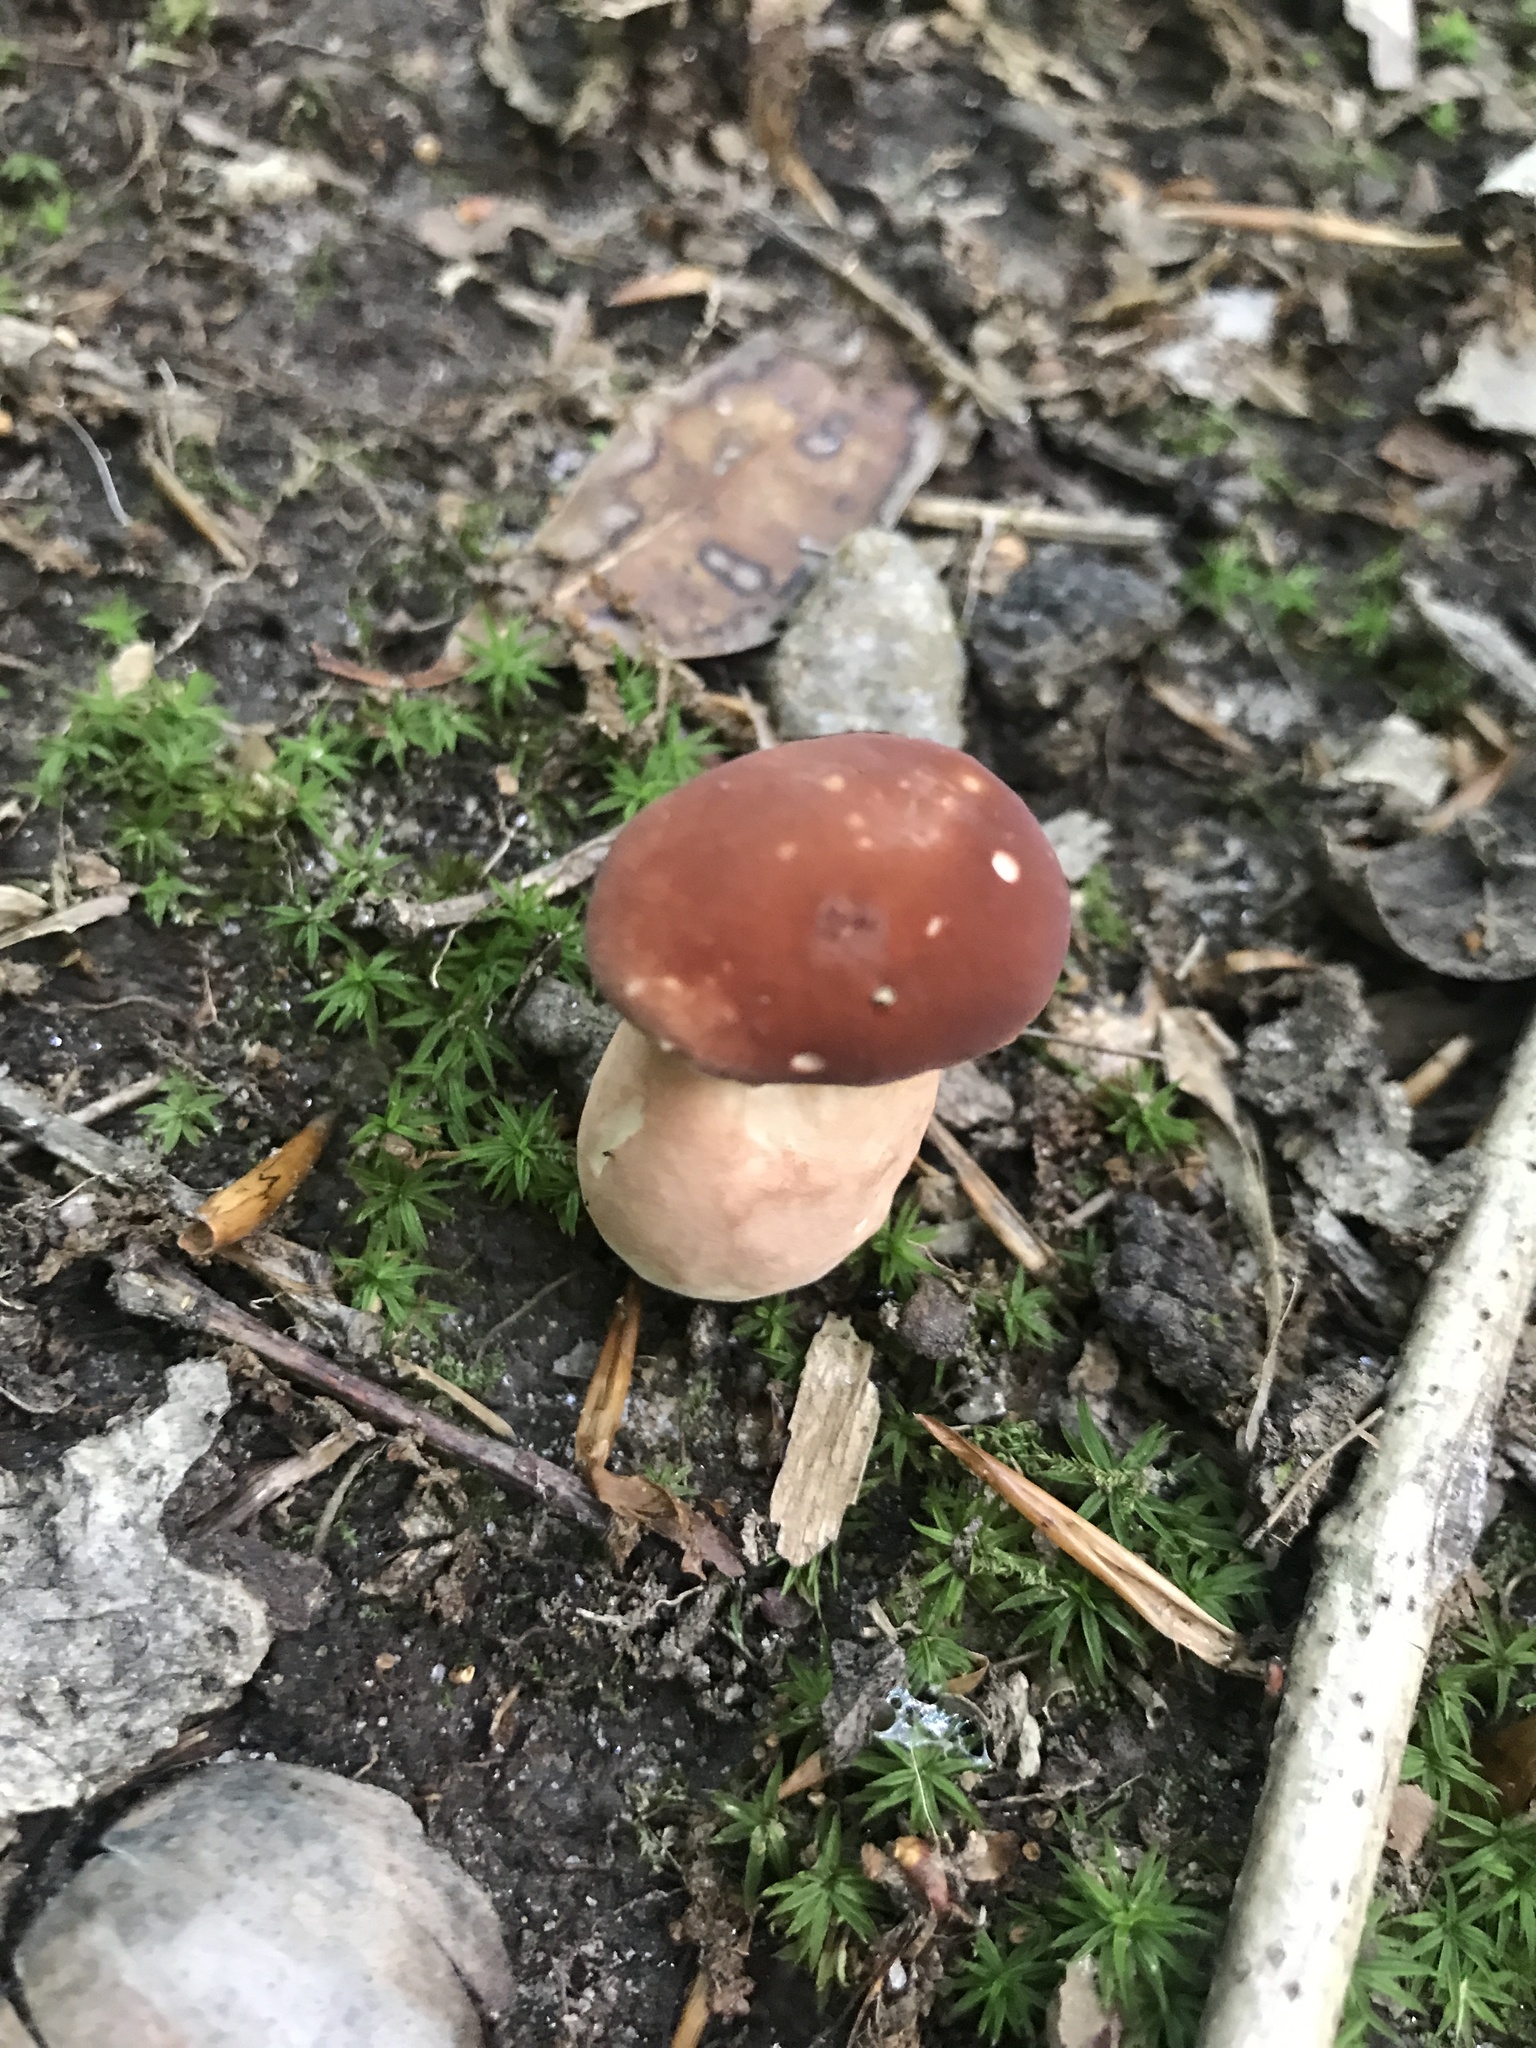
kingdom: Fungi
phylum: Basidiomycota
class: Agaricomycetes
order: Boletales
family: Boletaceae
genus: Xanthoconium
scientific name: Xanthoconium purpureum
